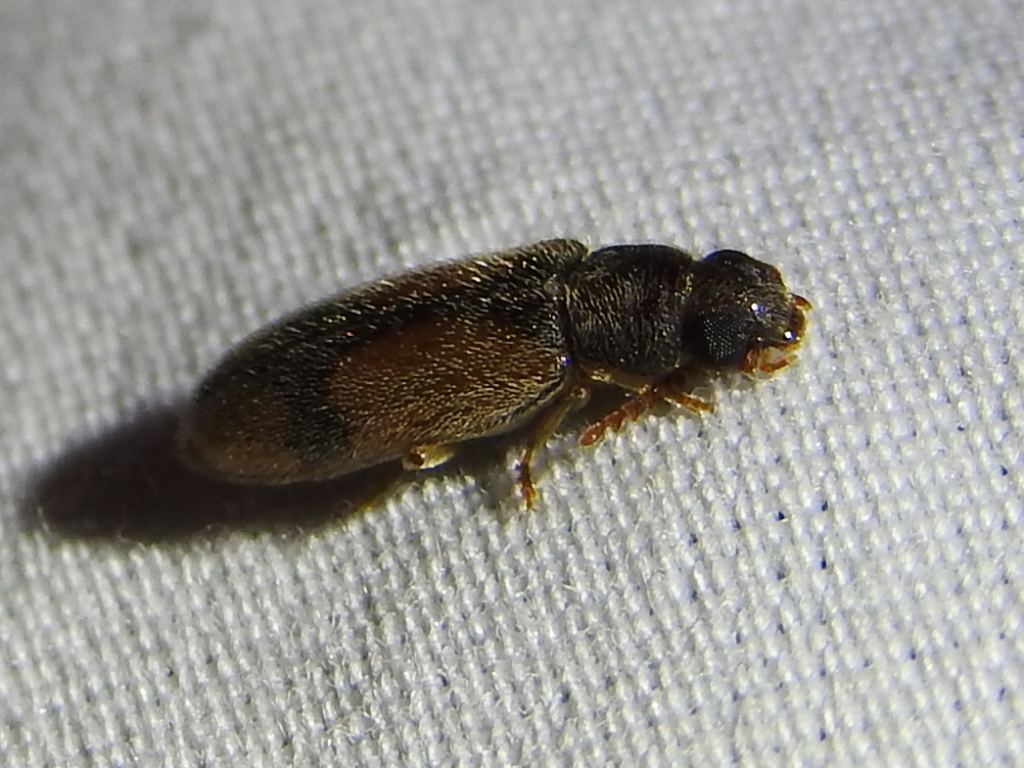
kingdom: Animalia
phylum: Arthropoda
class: Insecta
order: Coleoptera
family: Oedemeridae
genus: Polypria
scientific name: Polypria
